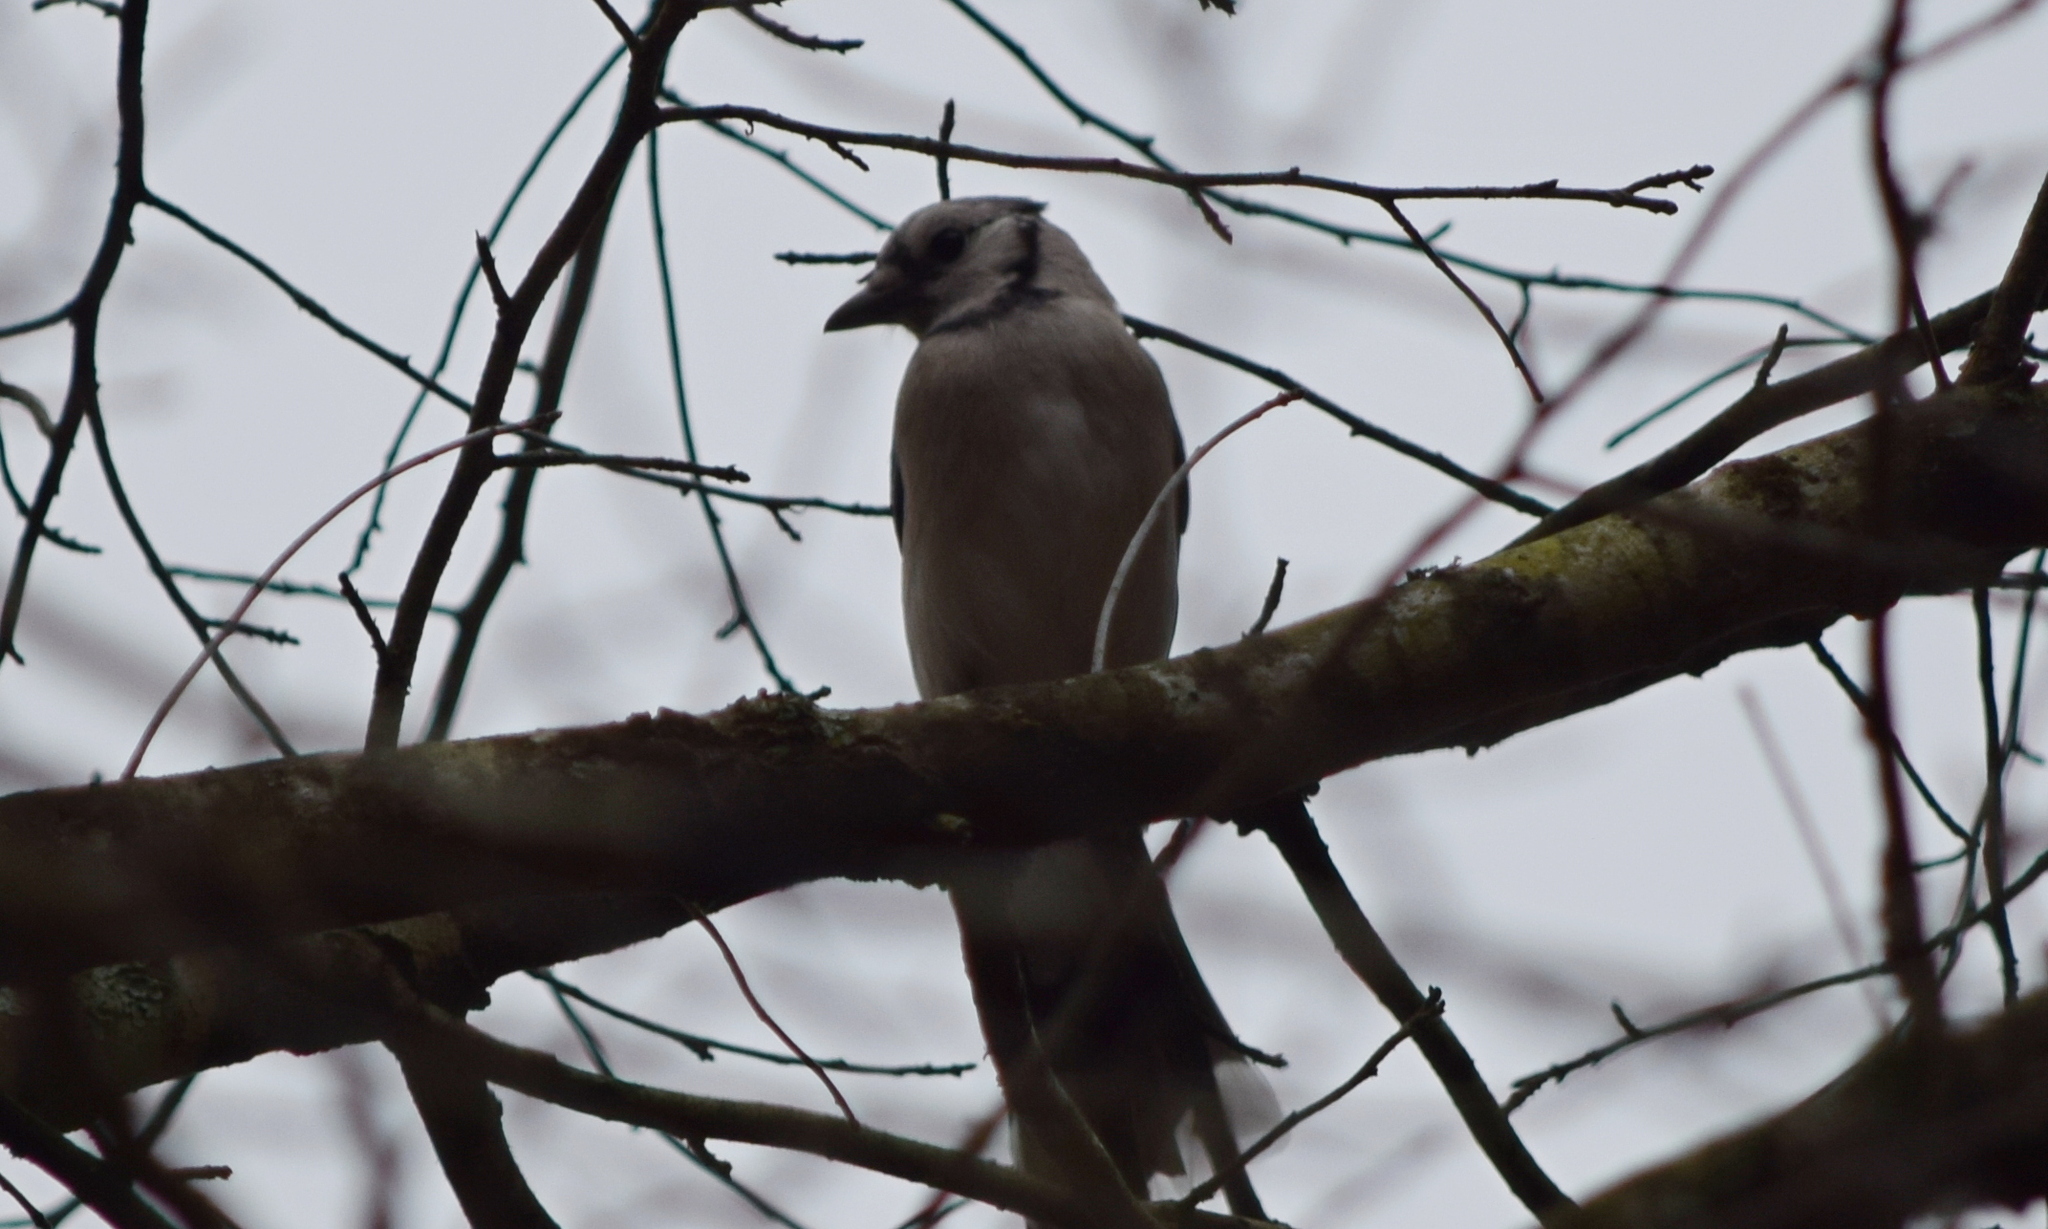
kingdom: Animalia
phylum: Chordata
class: Aves
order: Passeriformes
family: Corvidae
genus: Cyanocitta
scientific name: Cyanocitta cristata
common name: Blue jay
